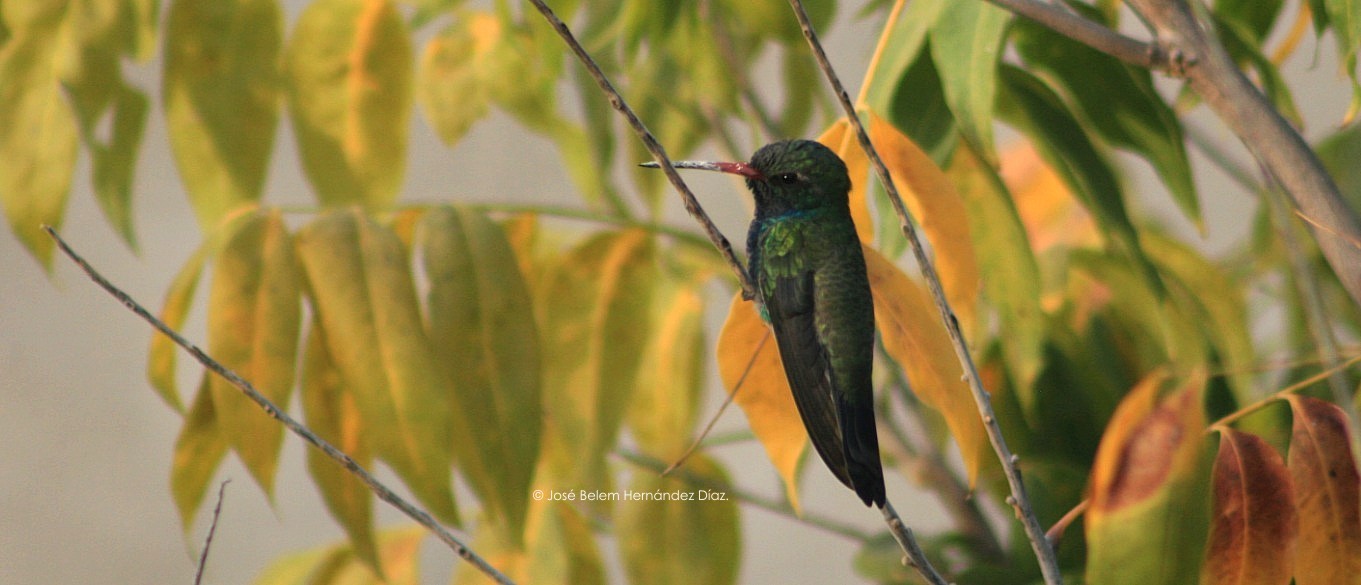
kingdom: Animalia
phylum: Chordata
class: Aves
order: Apodiformes
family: Trochilidae
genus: Cynanthus
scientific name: Cynanthus latirostris
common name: Broad-billed hummingbird
